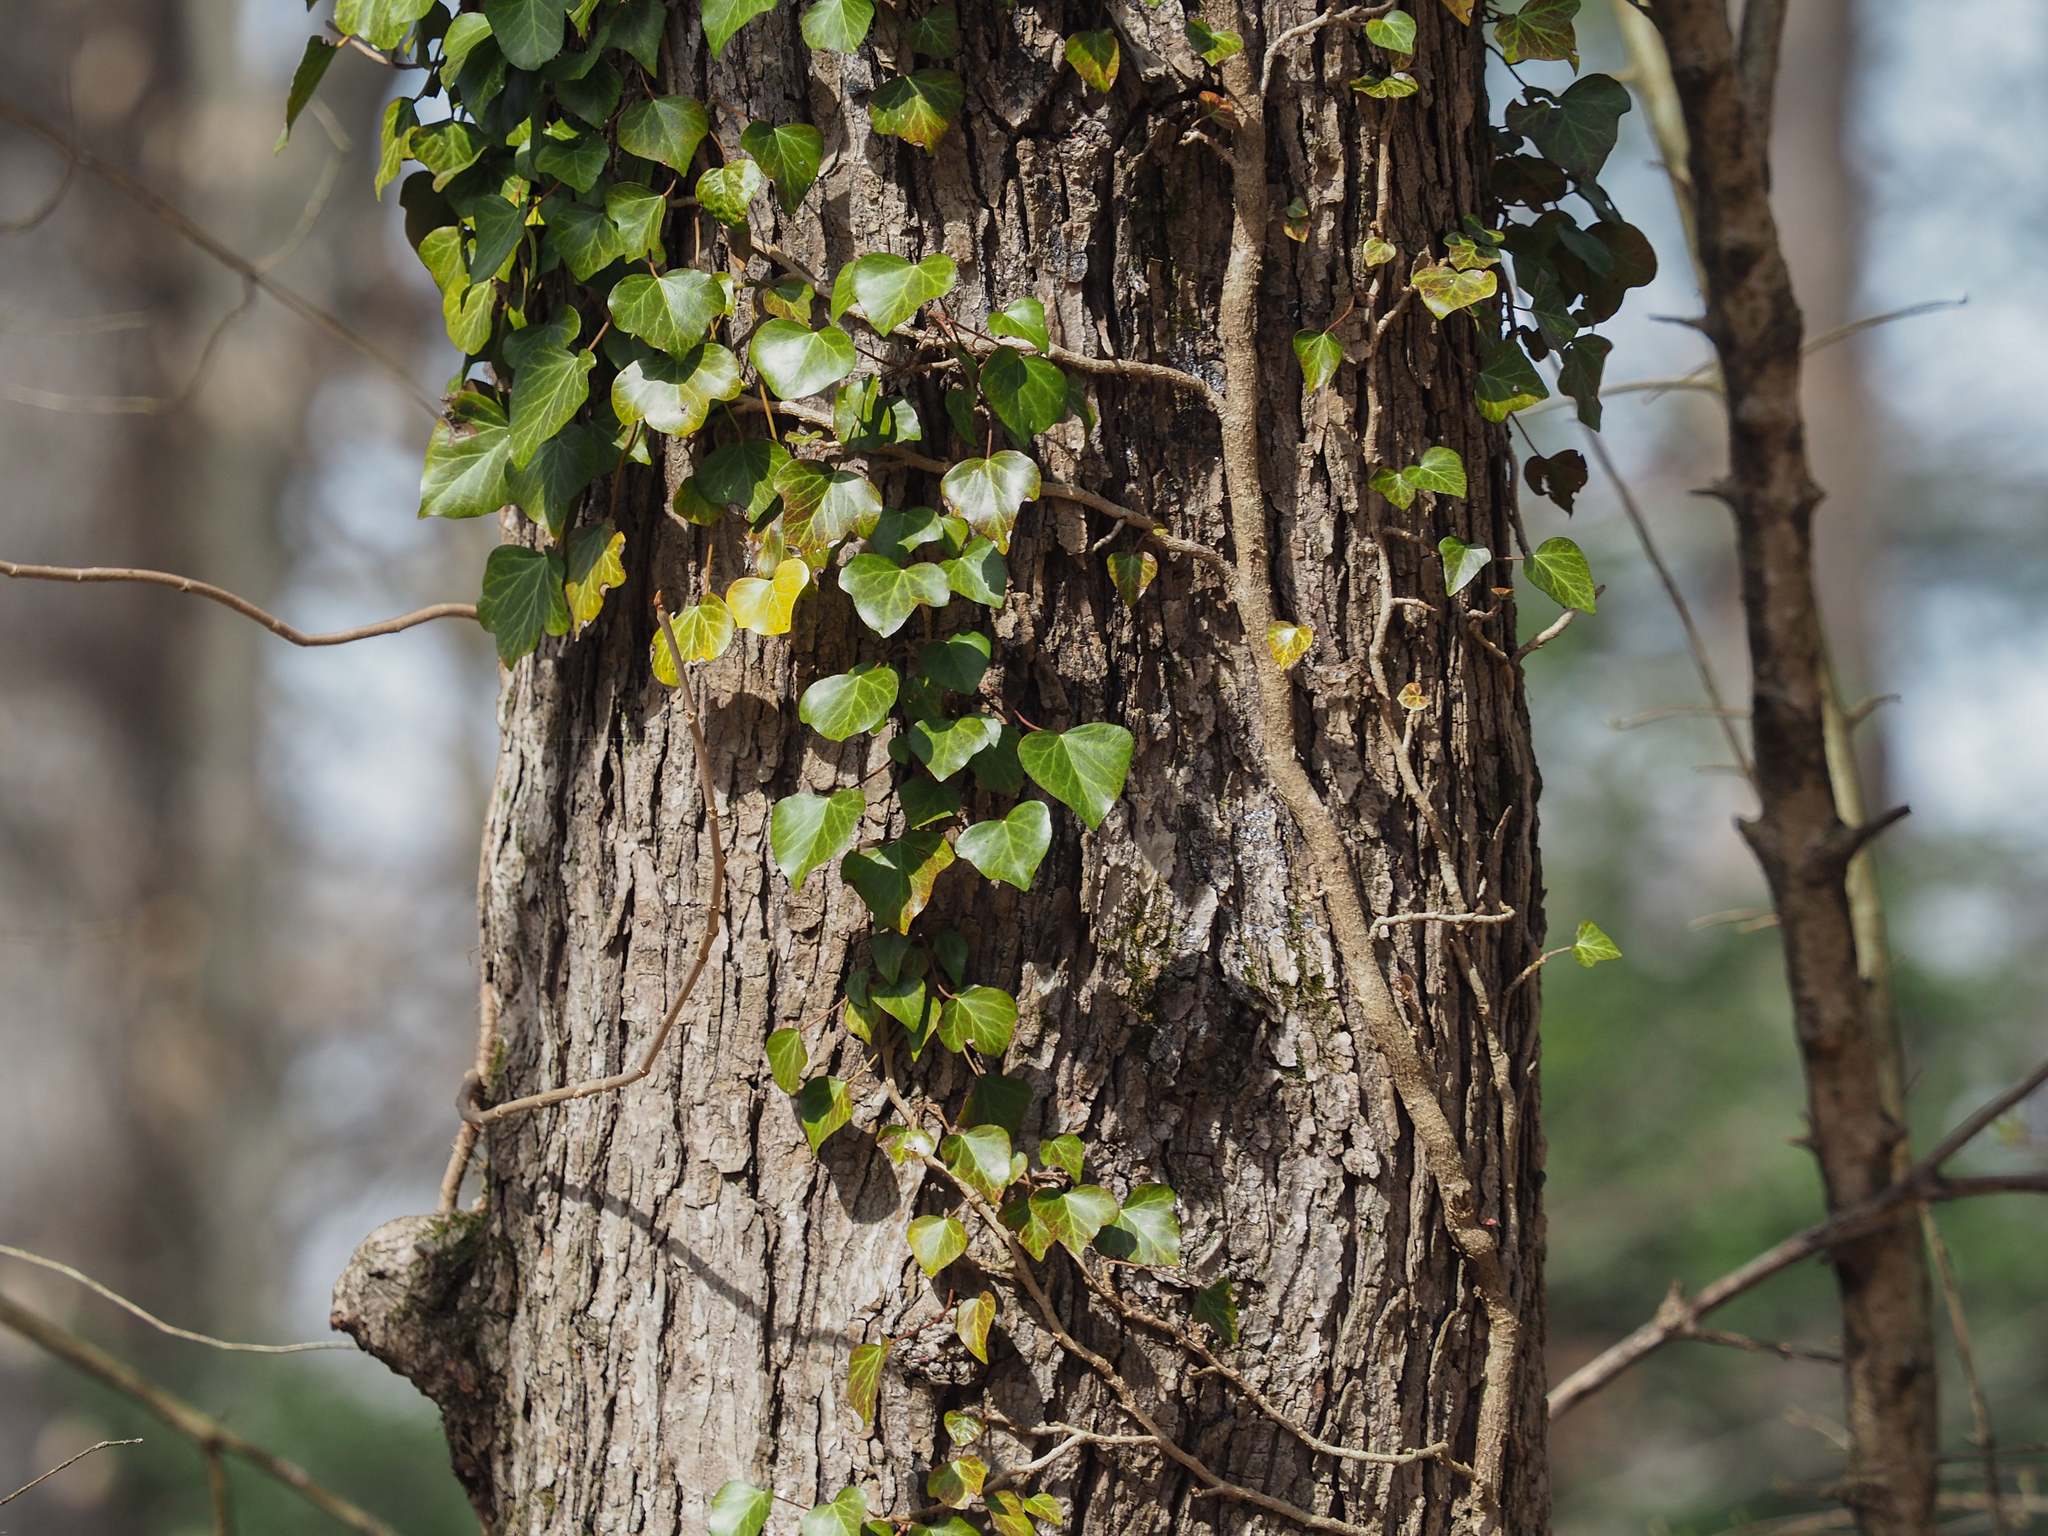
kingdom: Plantae
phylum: Tracheophyta
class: Magnoliopsida
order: Apiales
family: Araliaceae
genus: Hedera
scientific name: Hedera helix
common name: Ivy
